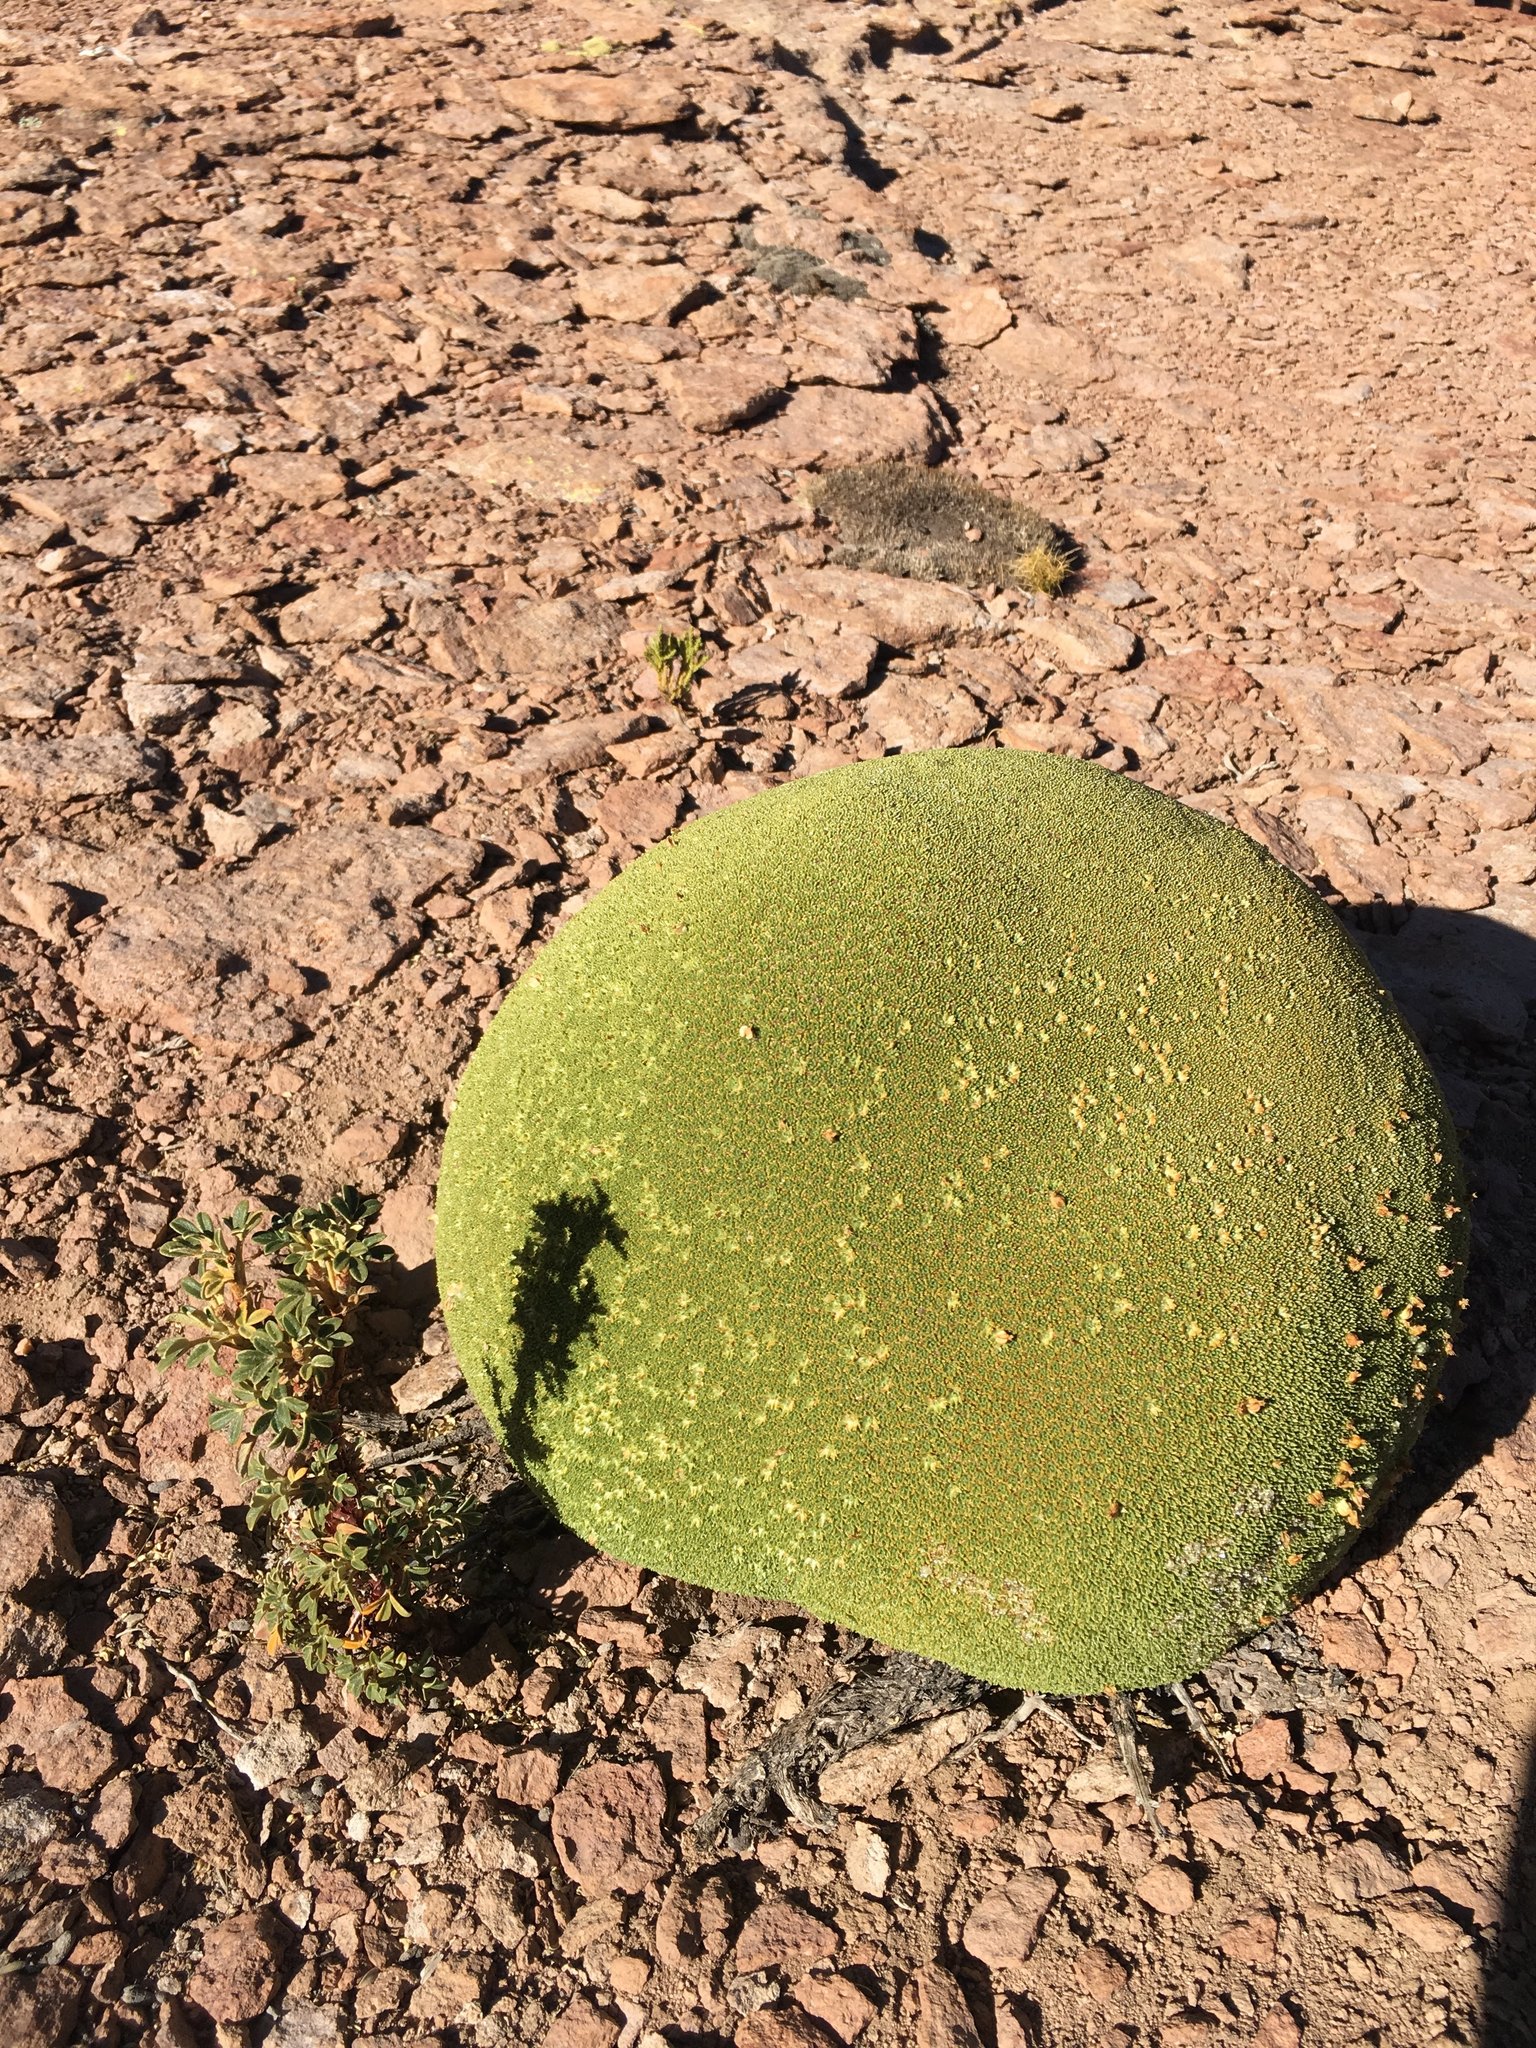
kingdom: Plantae
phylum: Tracheophyta
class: Magnoliopsida
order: Apiales
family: Apiaceae
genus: Azorella
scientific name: Azorella compacta
